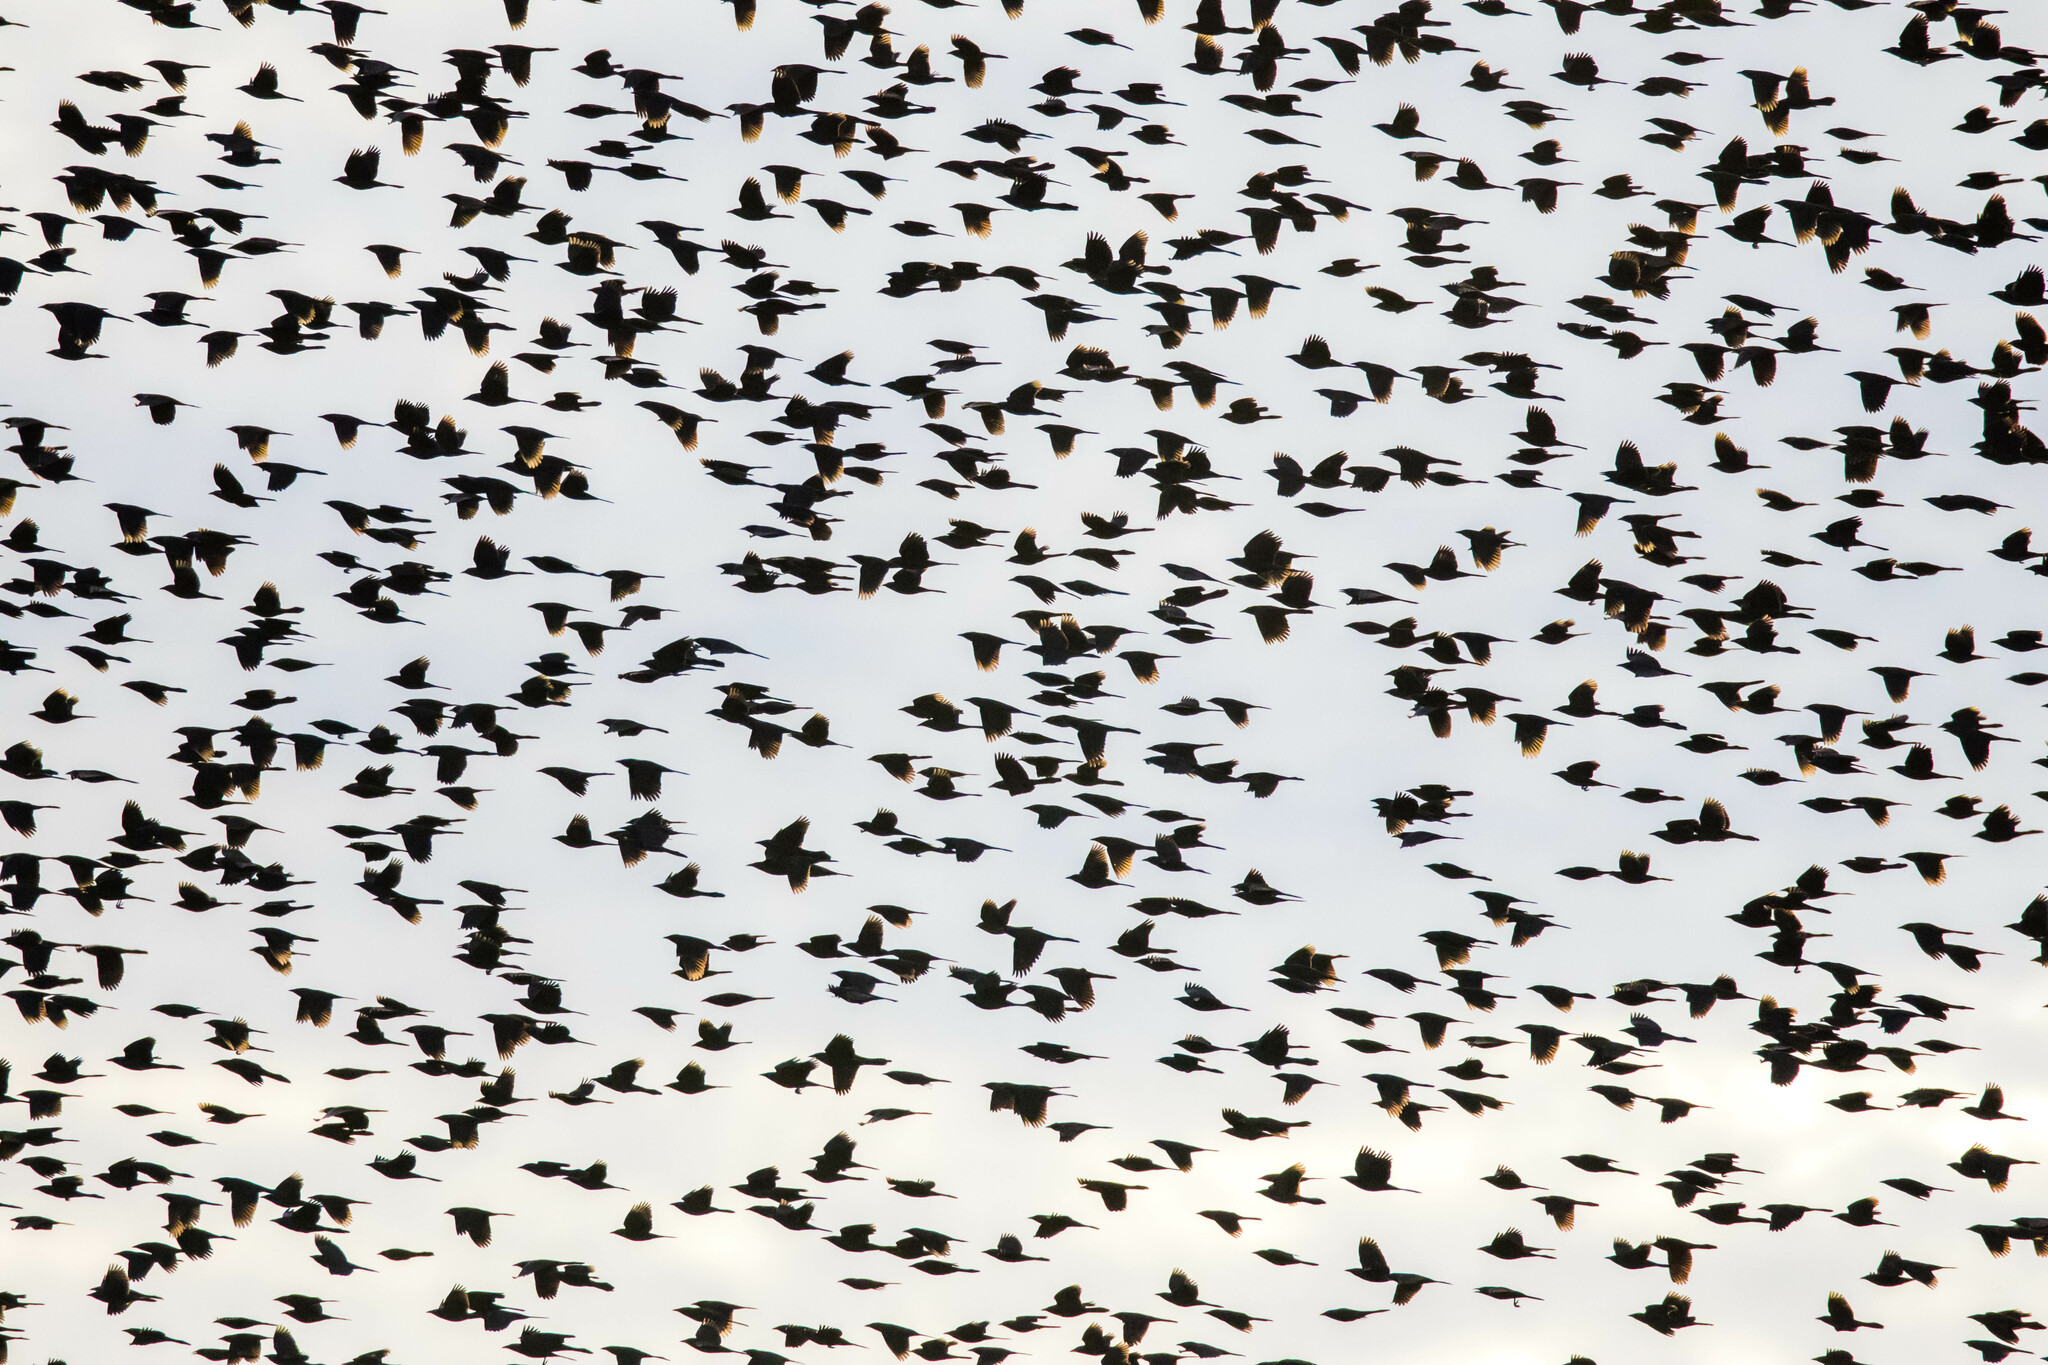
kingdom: Animalia
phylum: Chordata
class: Aves
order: Passeriformes
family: Icteridae
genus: Quiscalus
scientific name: Quiscalus quiscula
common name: Common grackle
